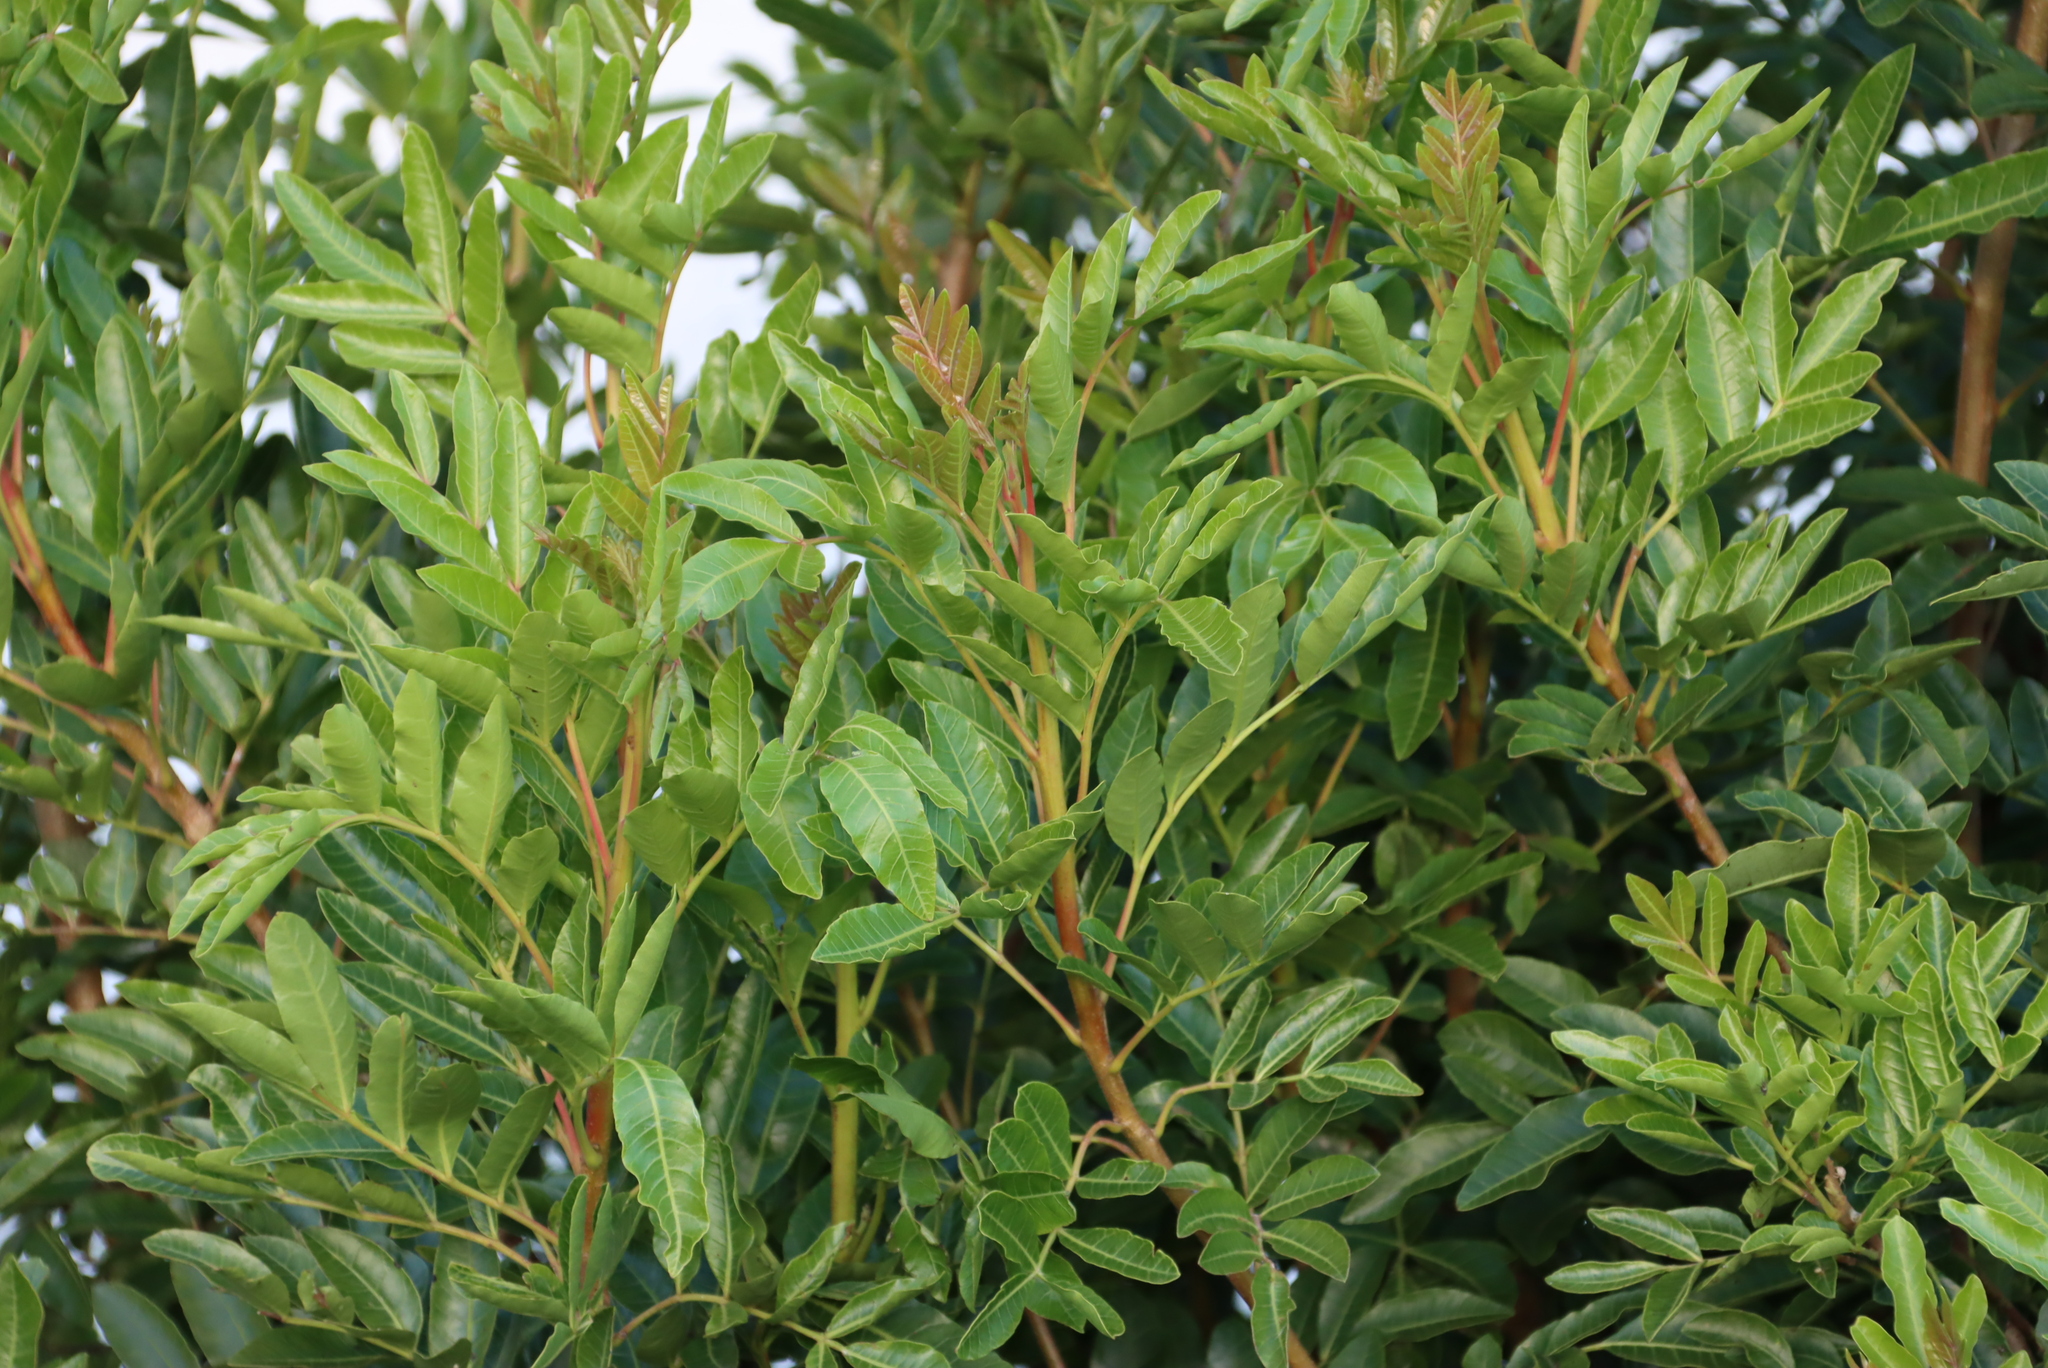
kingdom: Plantae
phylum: Tracheophyta
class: Magnoliopsida
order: Sapindales
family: Anacardiaceae
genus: Schinus
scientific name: Schinus terebinthifolia
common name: Brazilian peppertree
